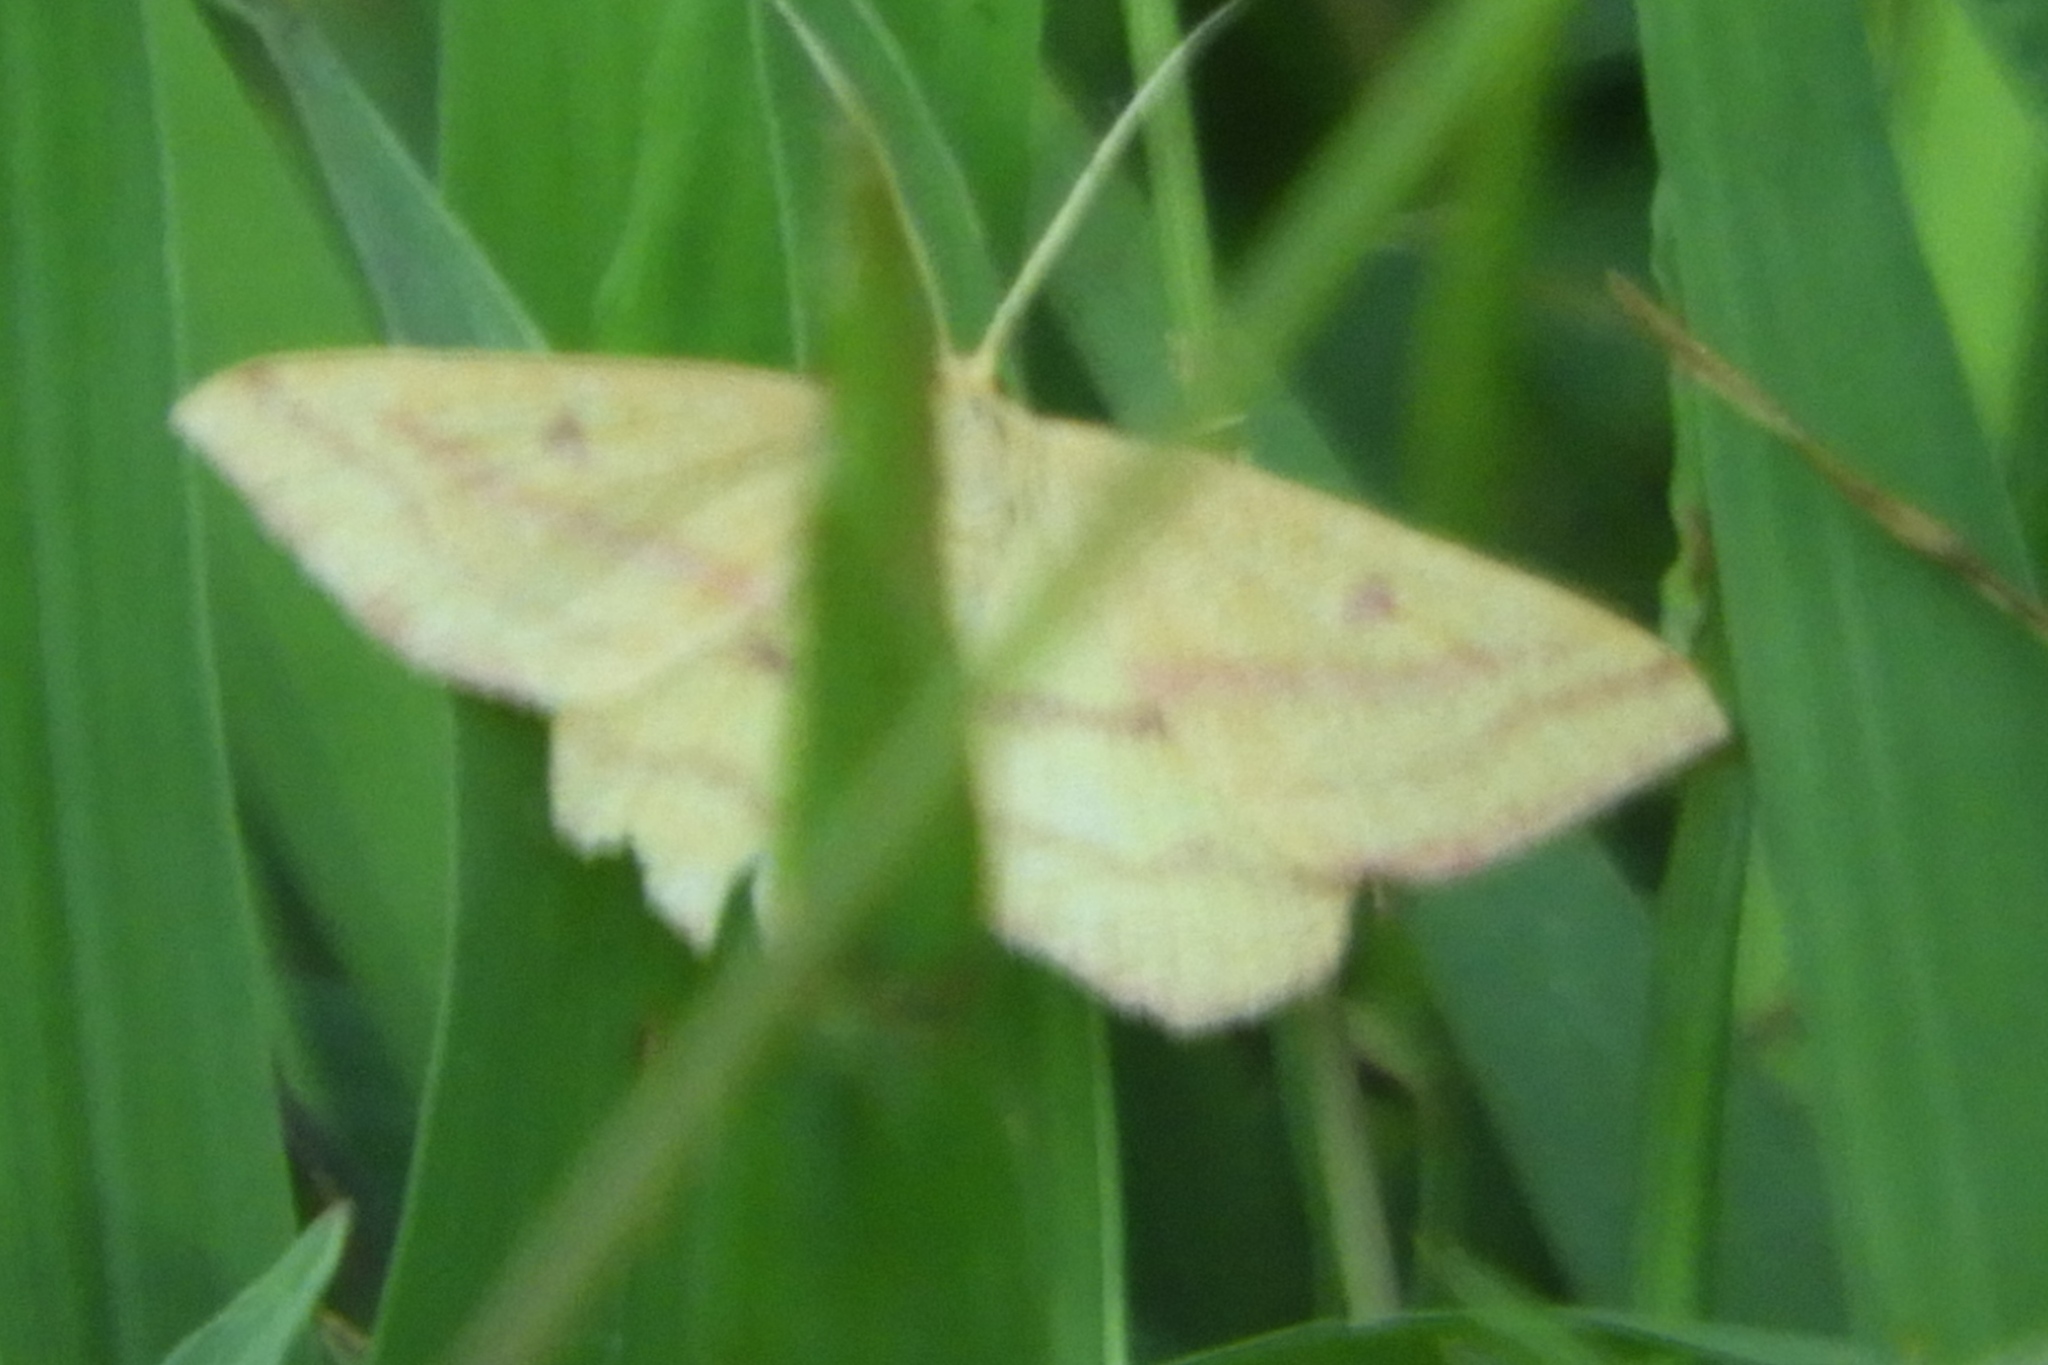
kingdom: Animalia
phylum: Arthropoda
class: Insecta
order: Lepidoptera
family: Geometridae
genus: Haematopis
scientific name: Haematopis grataria
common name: Chickweed geometer
